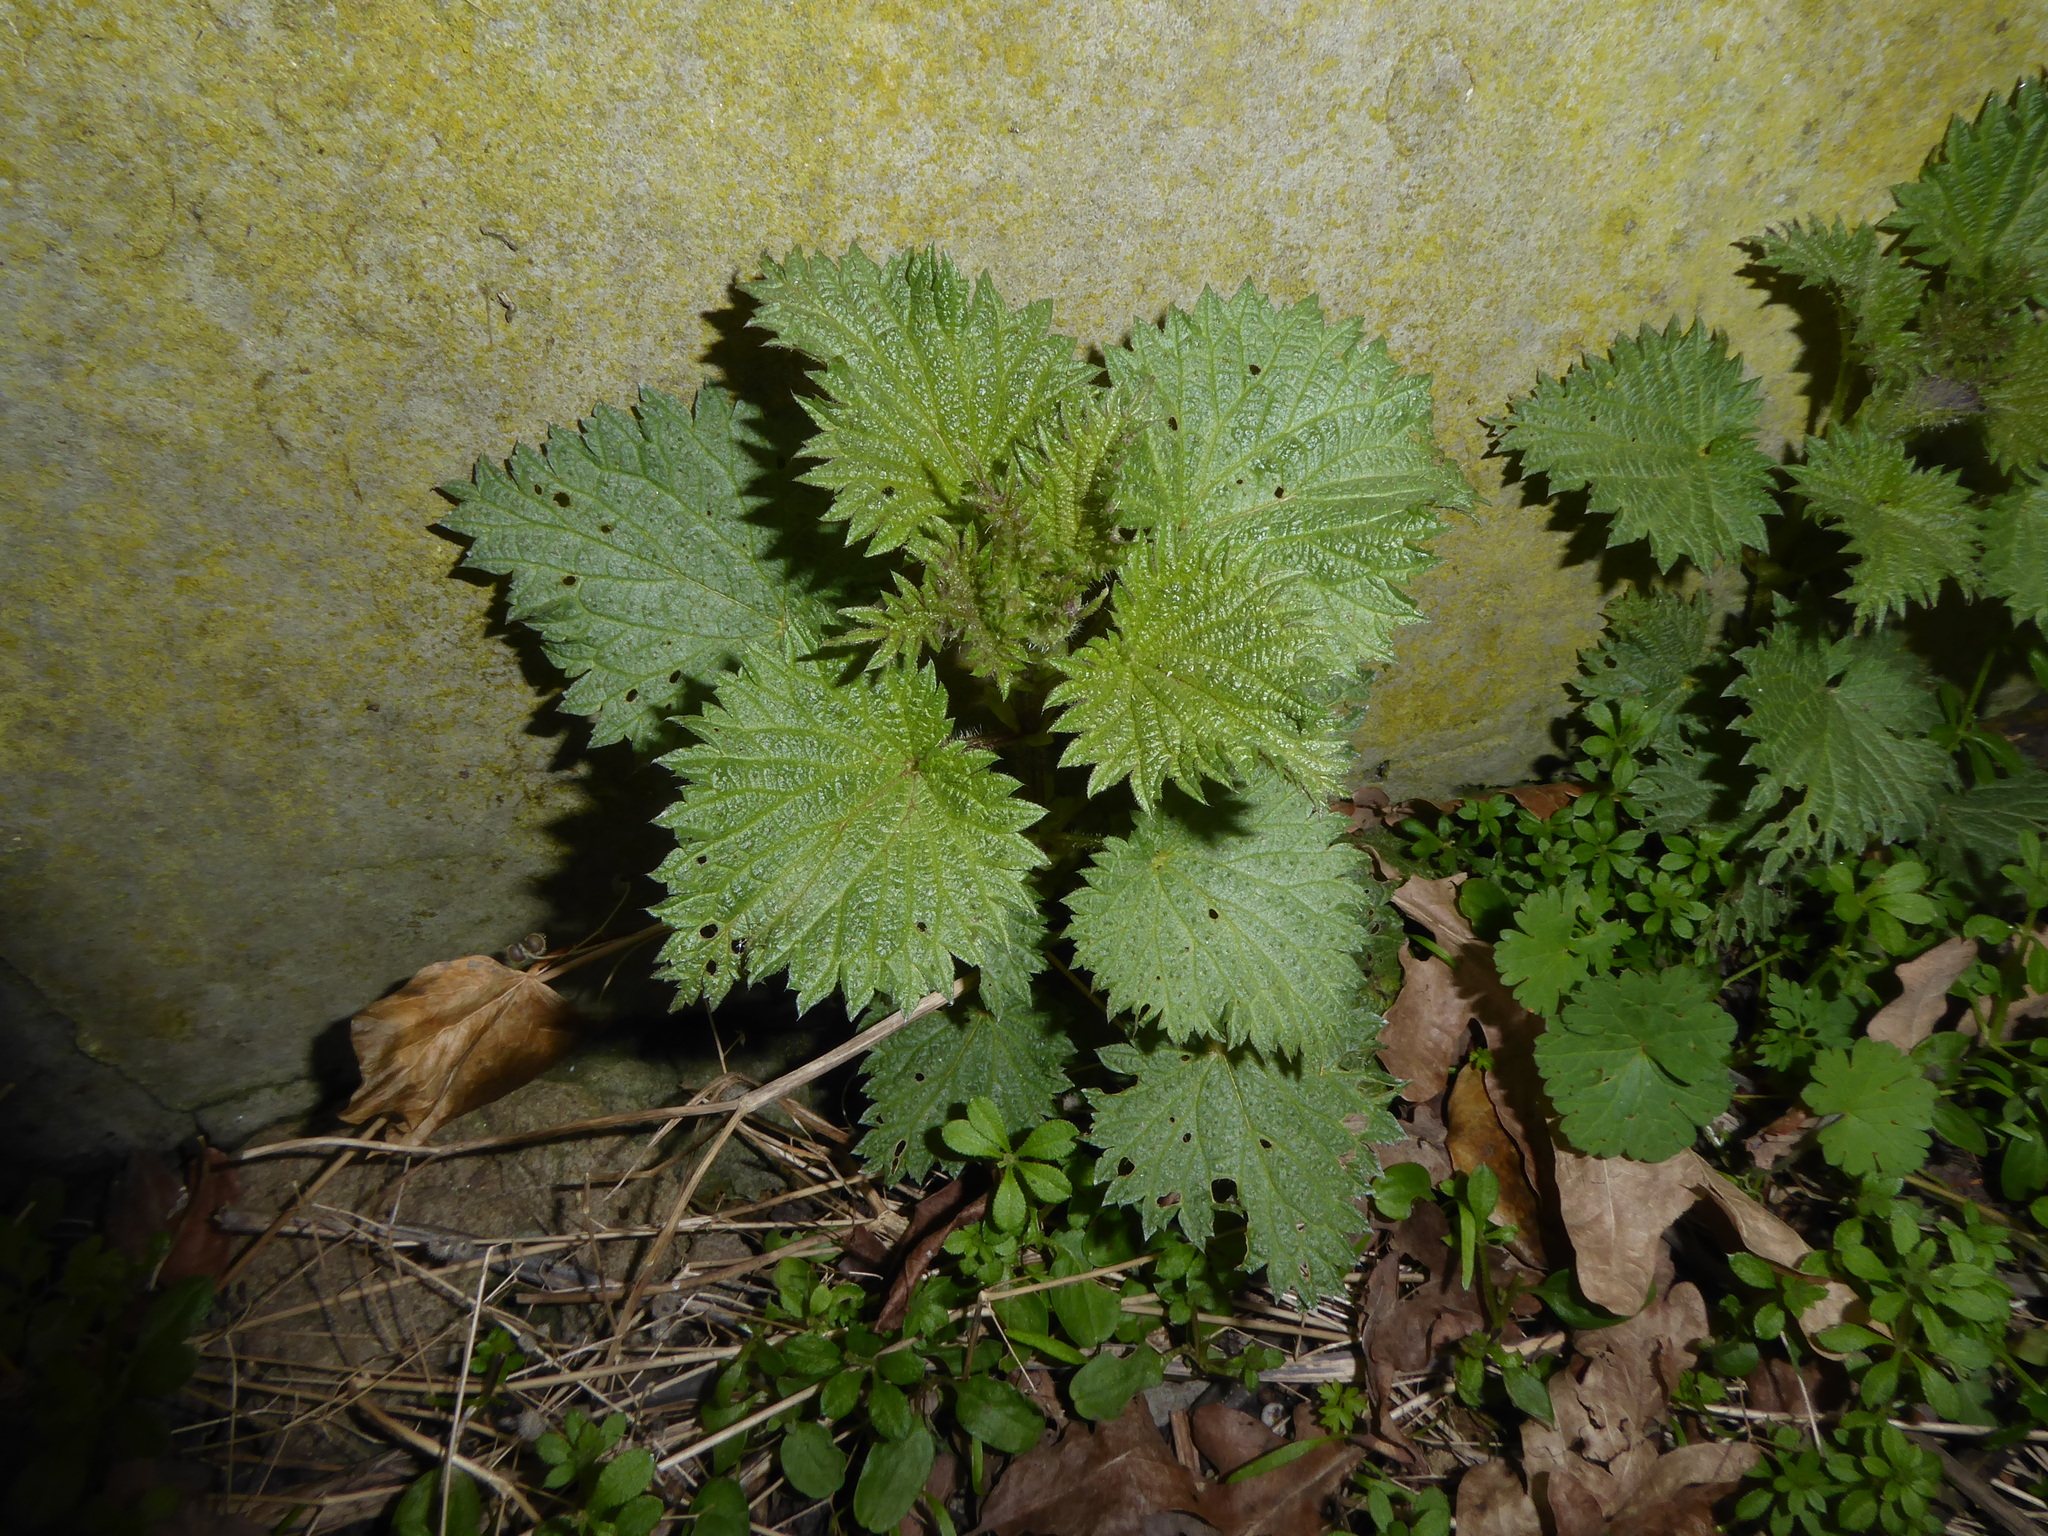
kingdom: Plantae
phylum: Tracheophyta
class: Magnoliopsida
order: Rosales
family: Urticaceae
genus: Urtica
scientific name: Urtica dioica
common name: Common nettle
